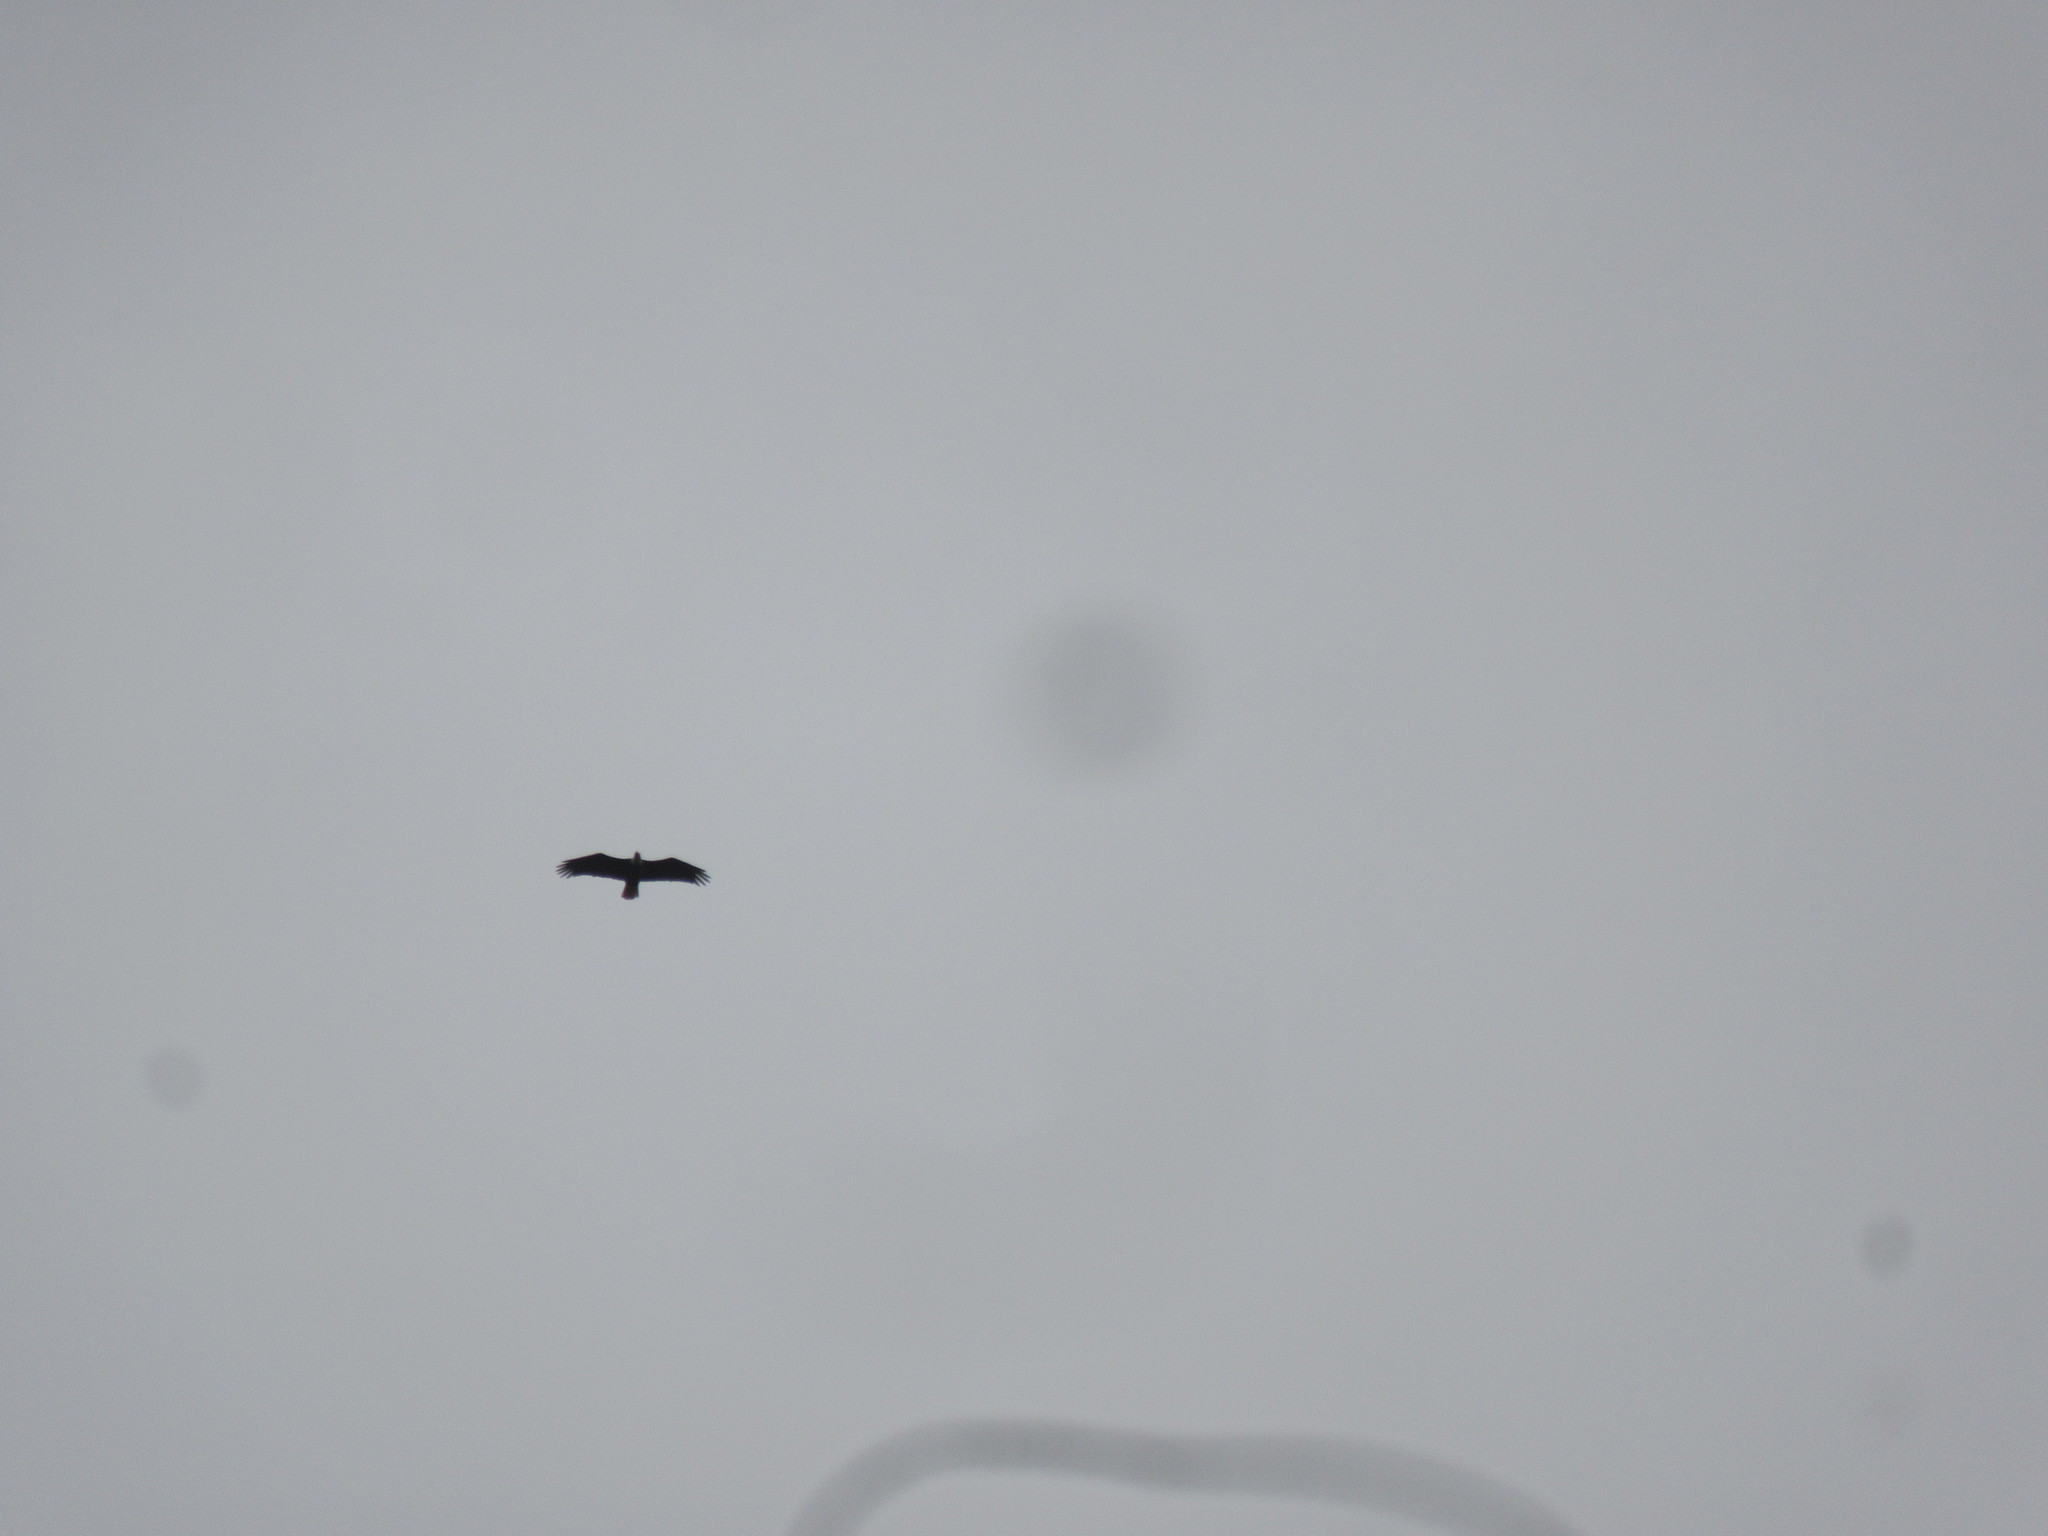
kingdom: Animalia
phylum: Chordata
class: Aves
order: Accipitriformes
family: Accipitridae
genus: Haliaeetus
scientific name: Haliaeetus leucocephalus
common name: Bald eagle
